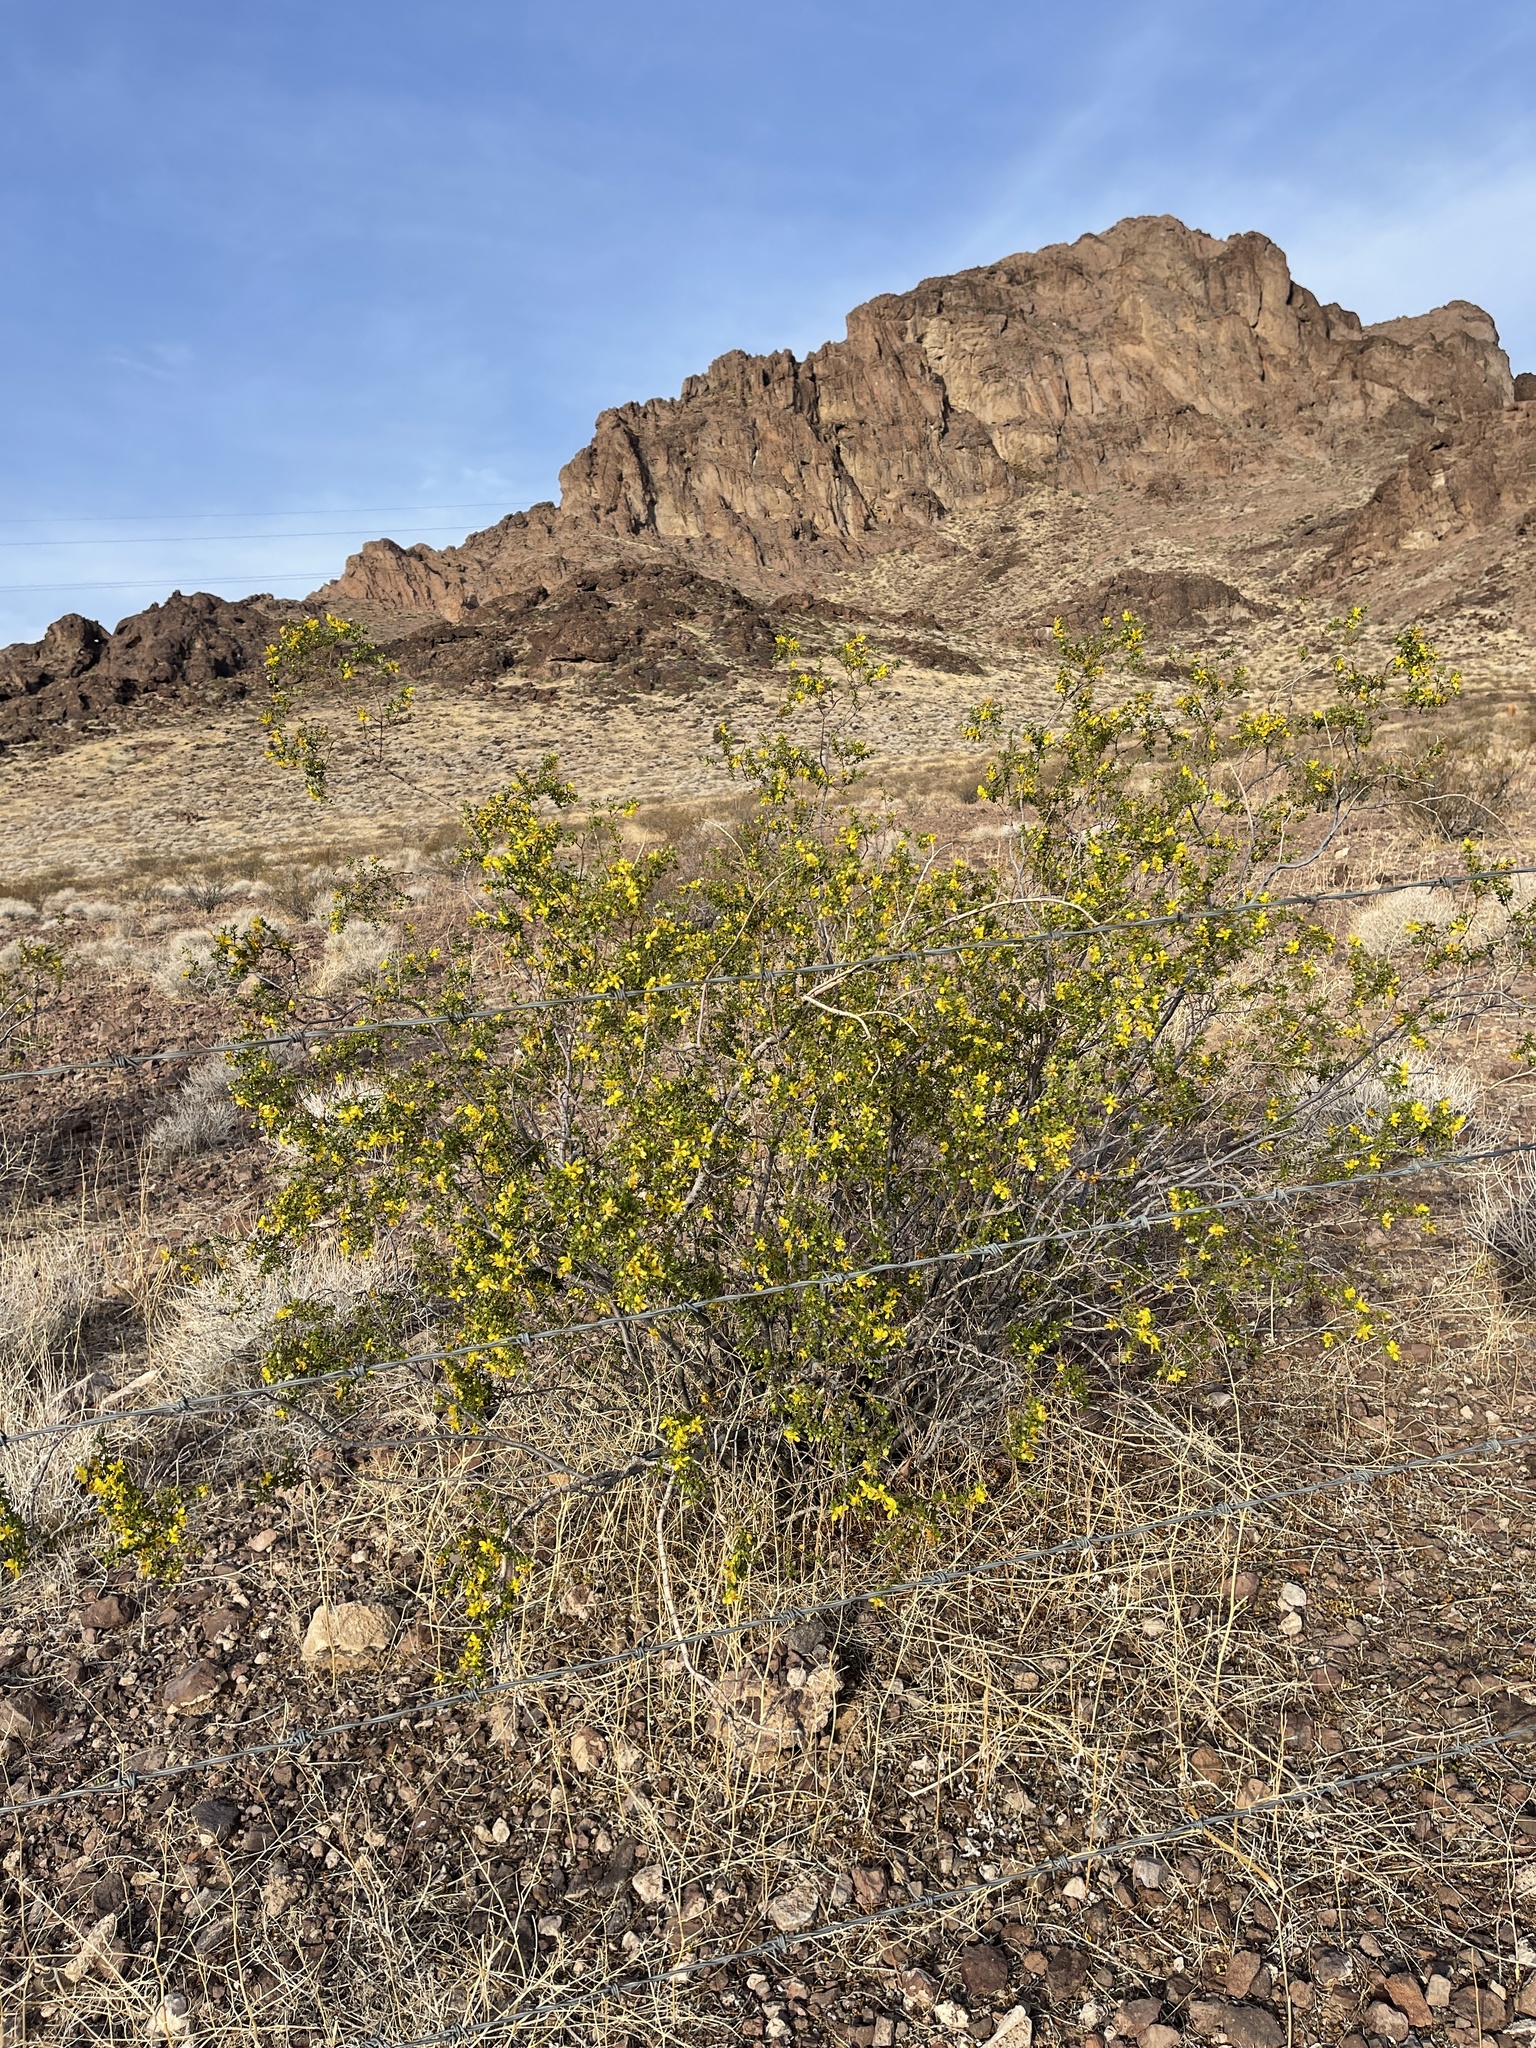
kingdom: Plantae
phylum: Tracheophyta
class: Magnoliopsida
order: Zygophyllales
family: Zygophyllaceae
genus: Larrea
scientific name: Larrea tridentata
